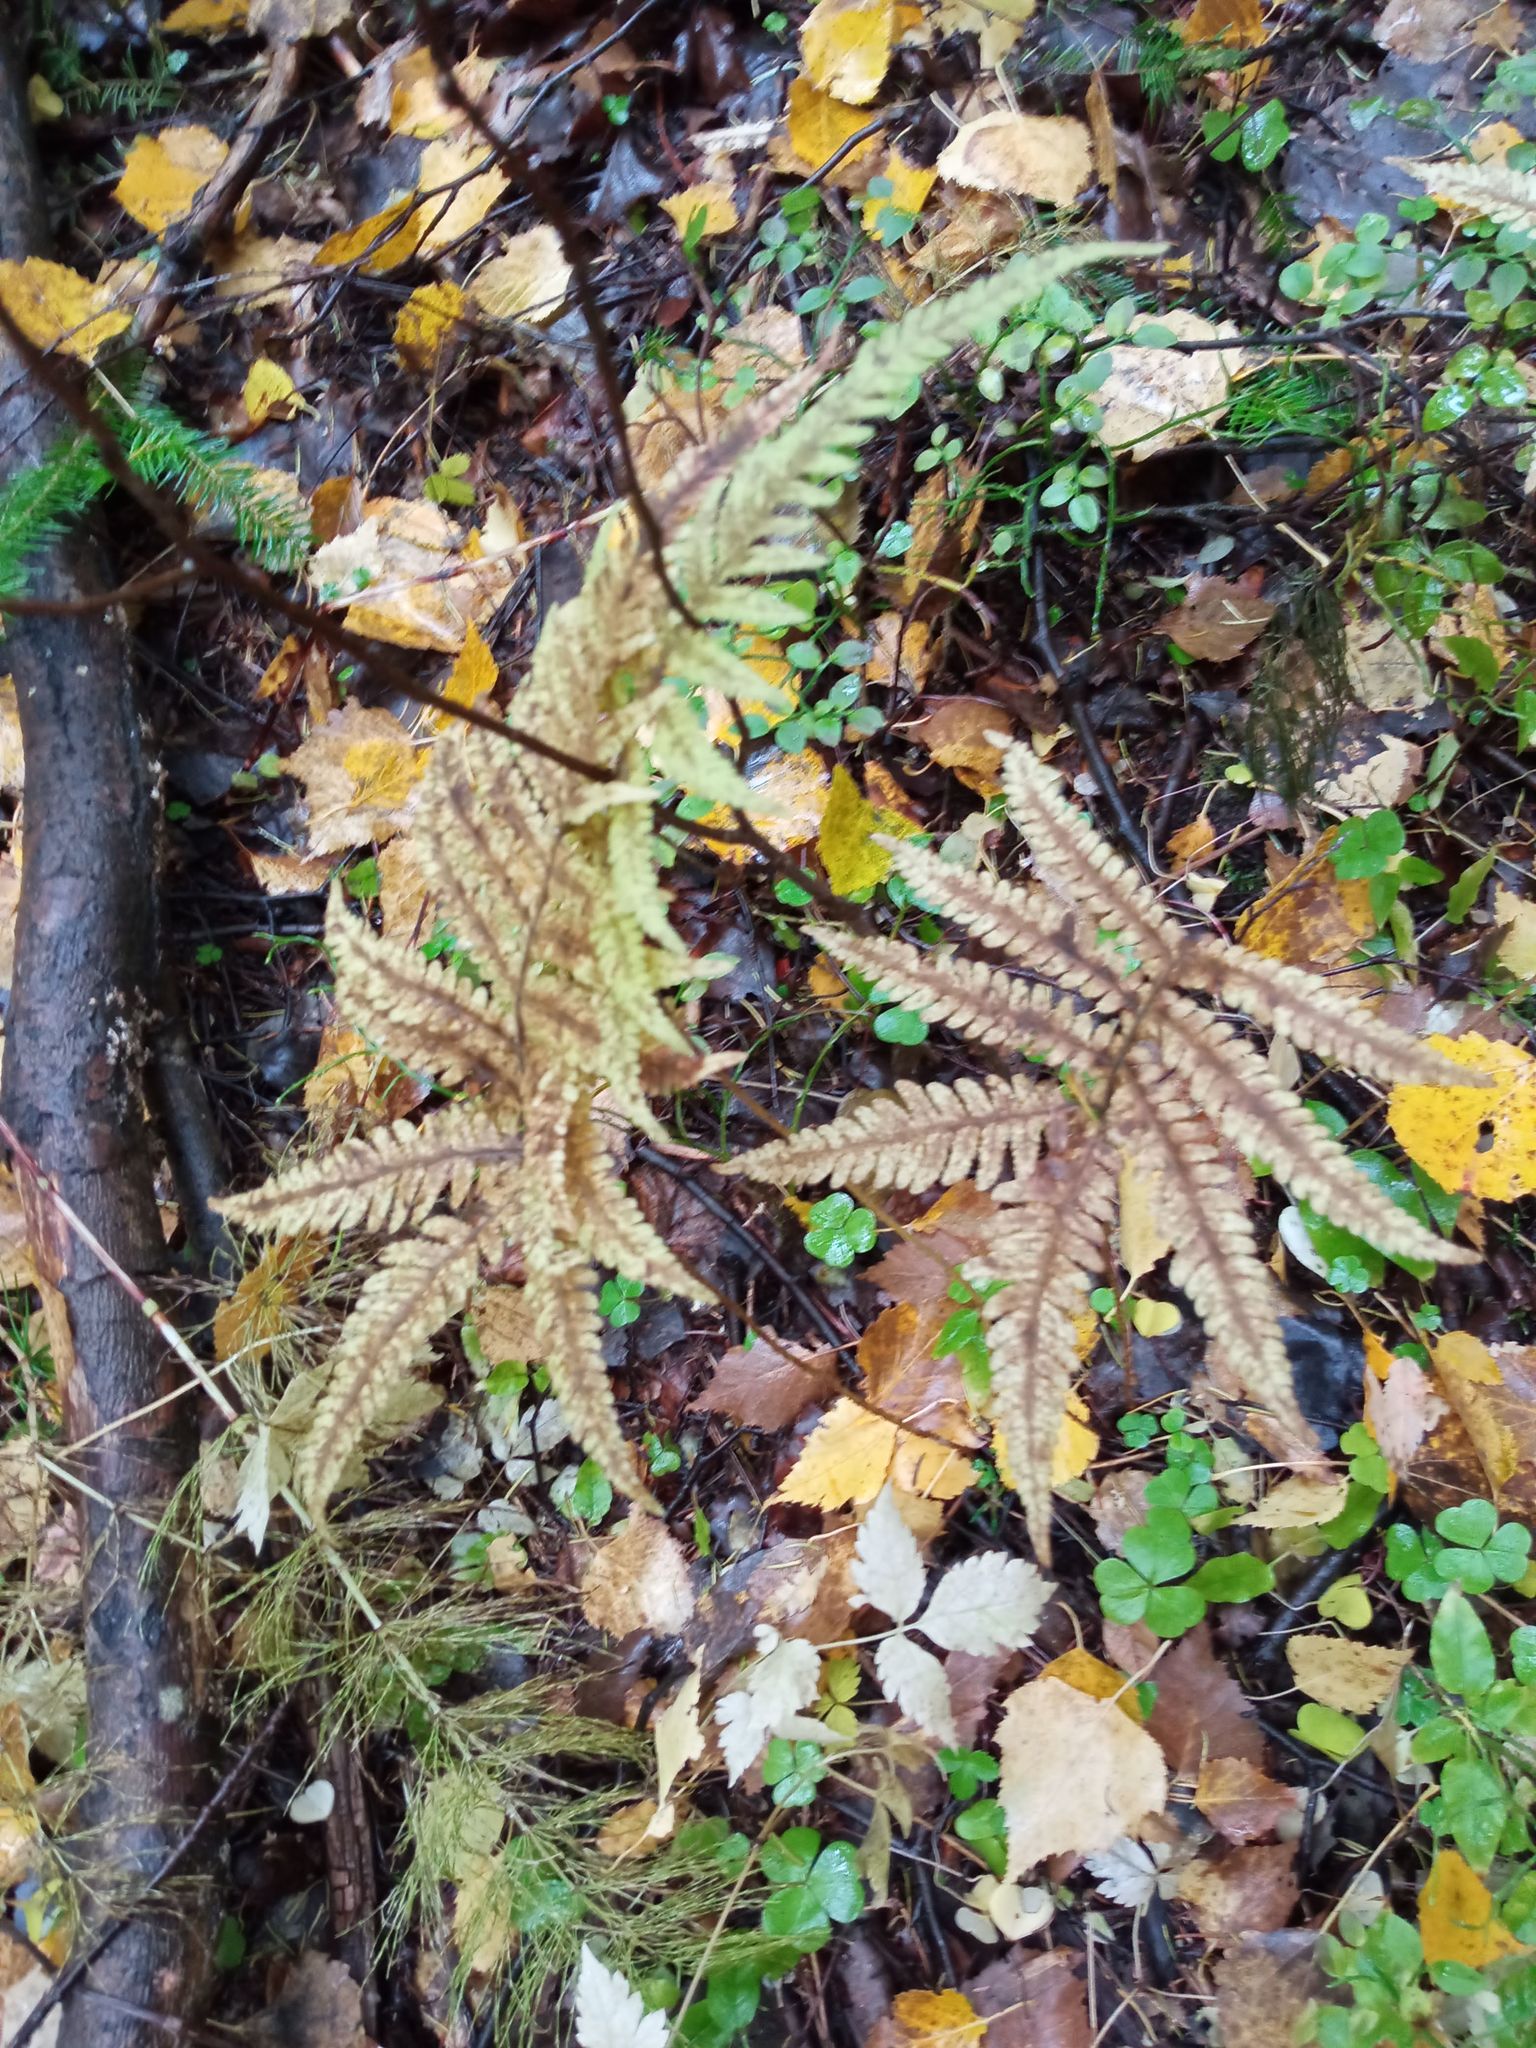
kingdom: Plantae
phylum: Tracheophyta
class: Polypodiopsida
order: Polypodiales
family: Thelypteridaceae
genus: Phegopteris
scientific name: Phegopteris connectilis
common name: Beech fern
